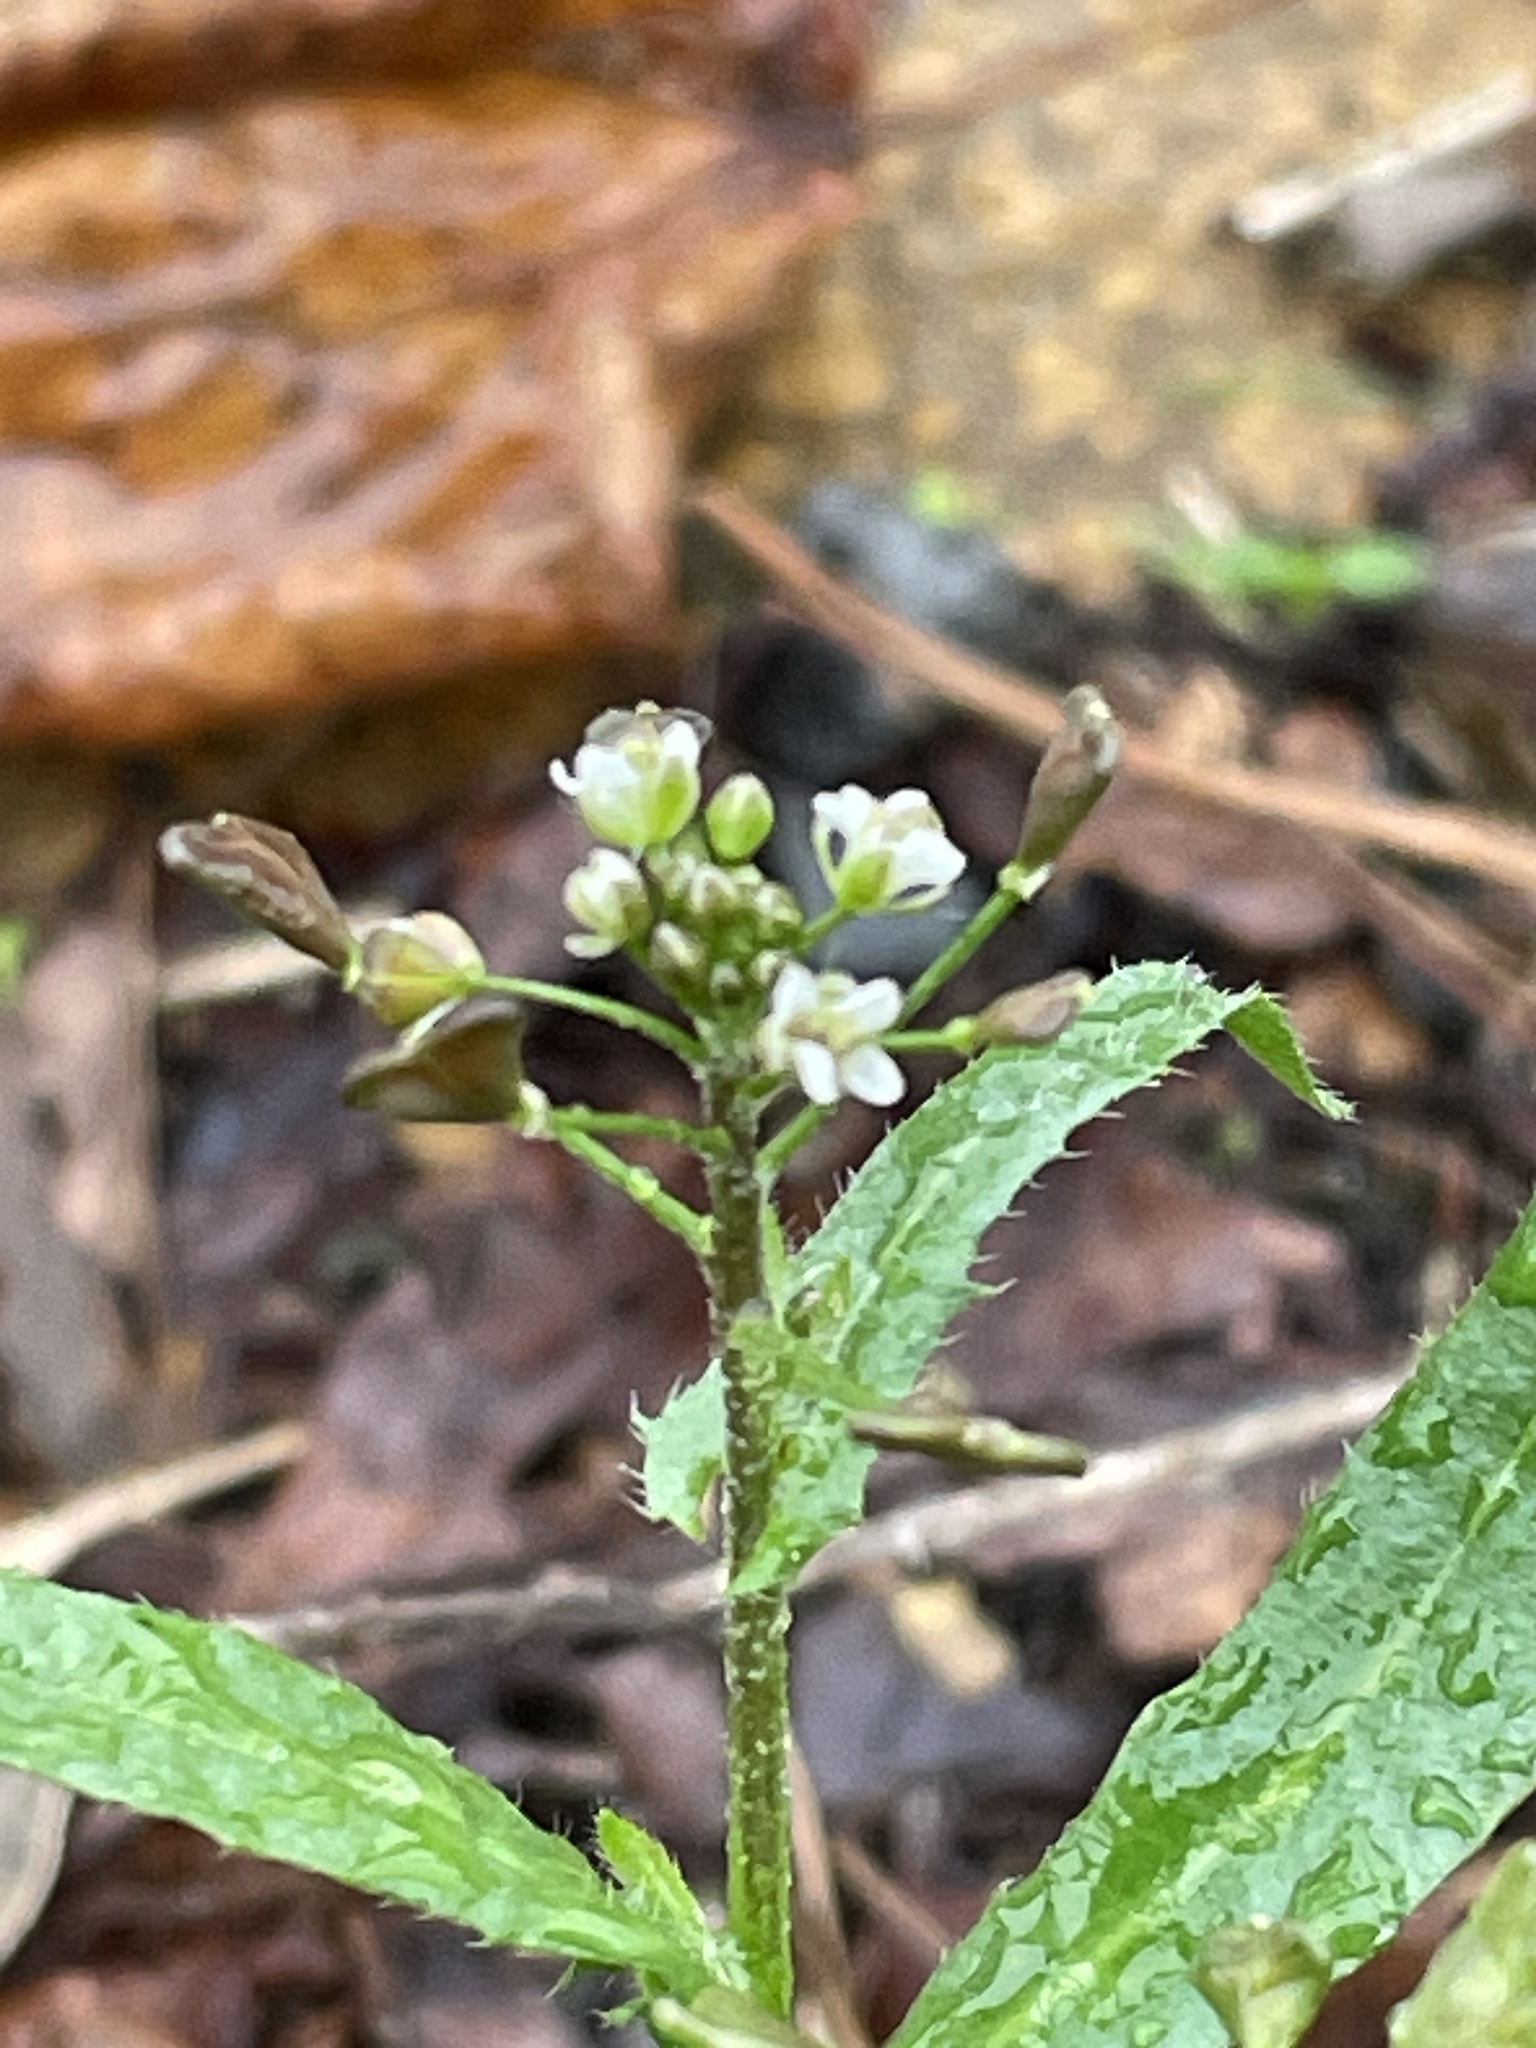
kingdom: Plantae
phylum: Tracheophyta
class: Magnoliopsida
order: Brassicales
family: Brassicaceae
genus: Capsella
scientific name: Capsella bursa-pastoris
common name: Shepherd's purse
